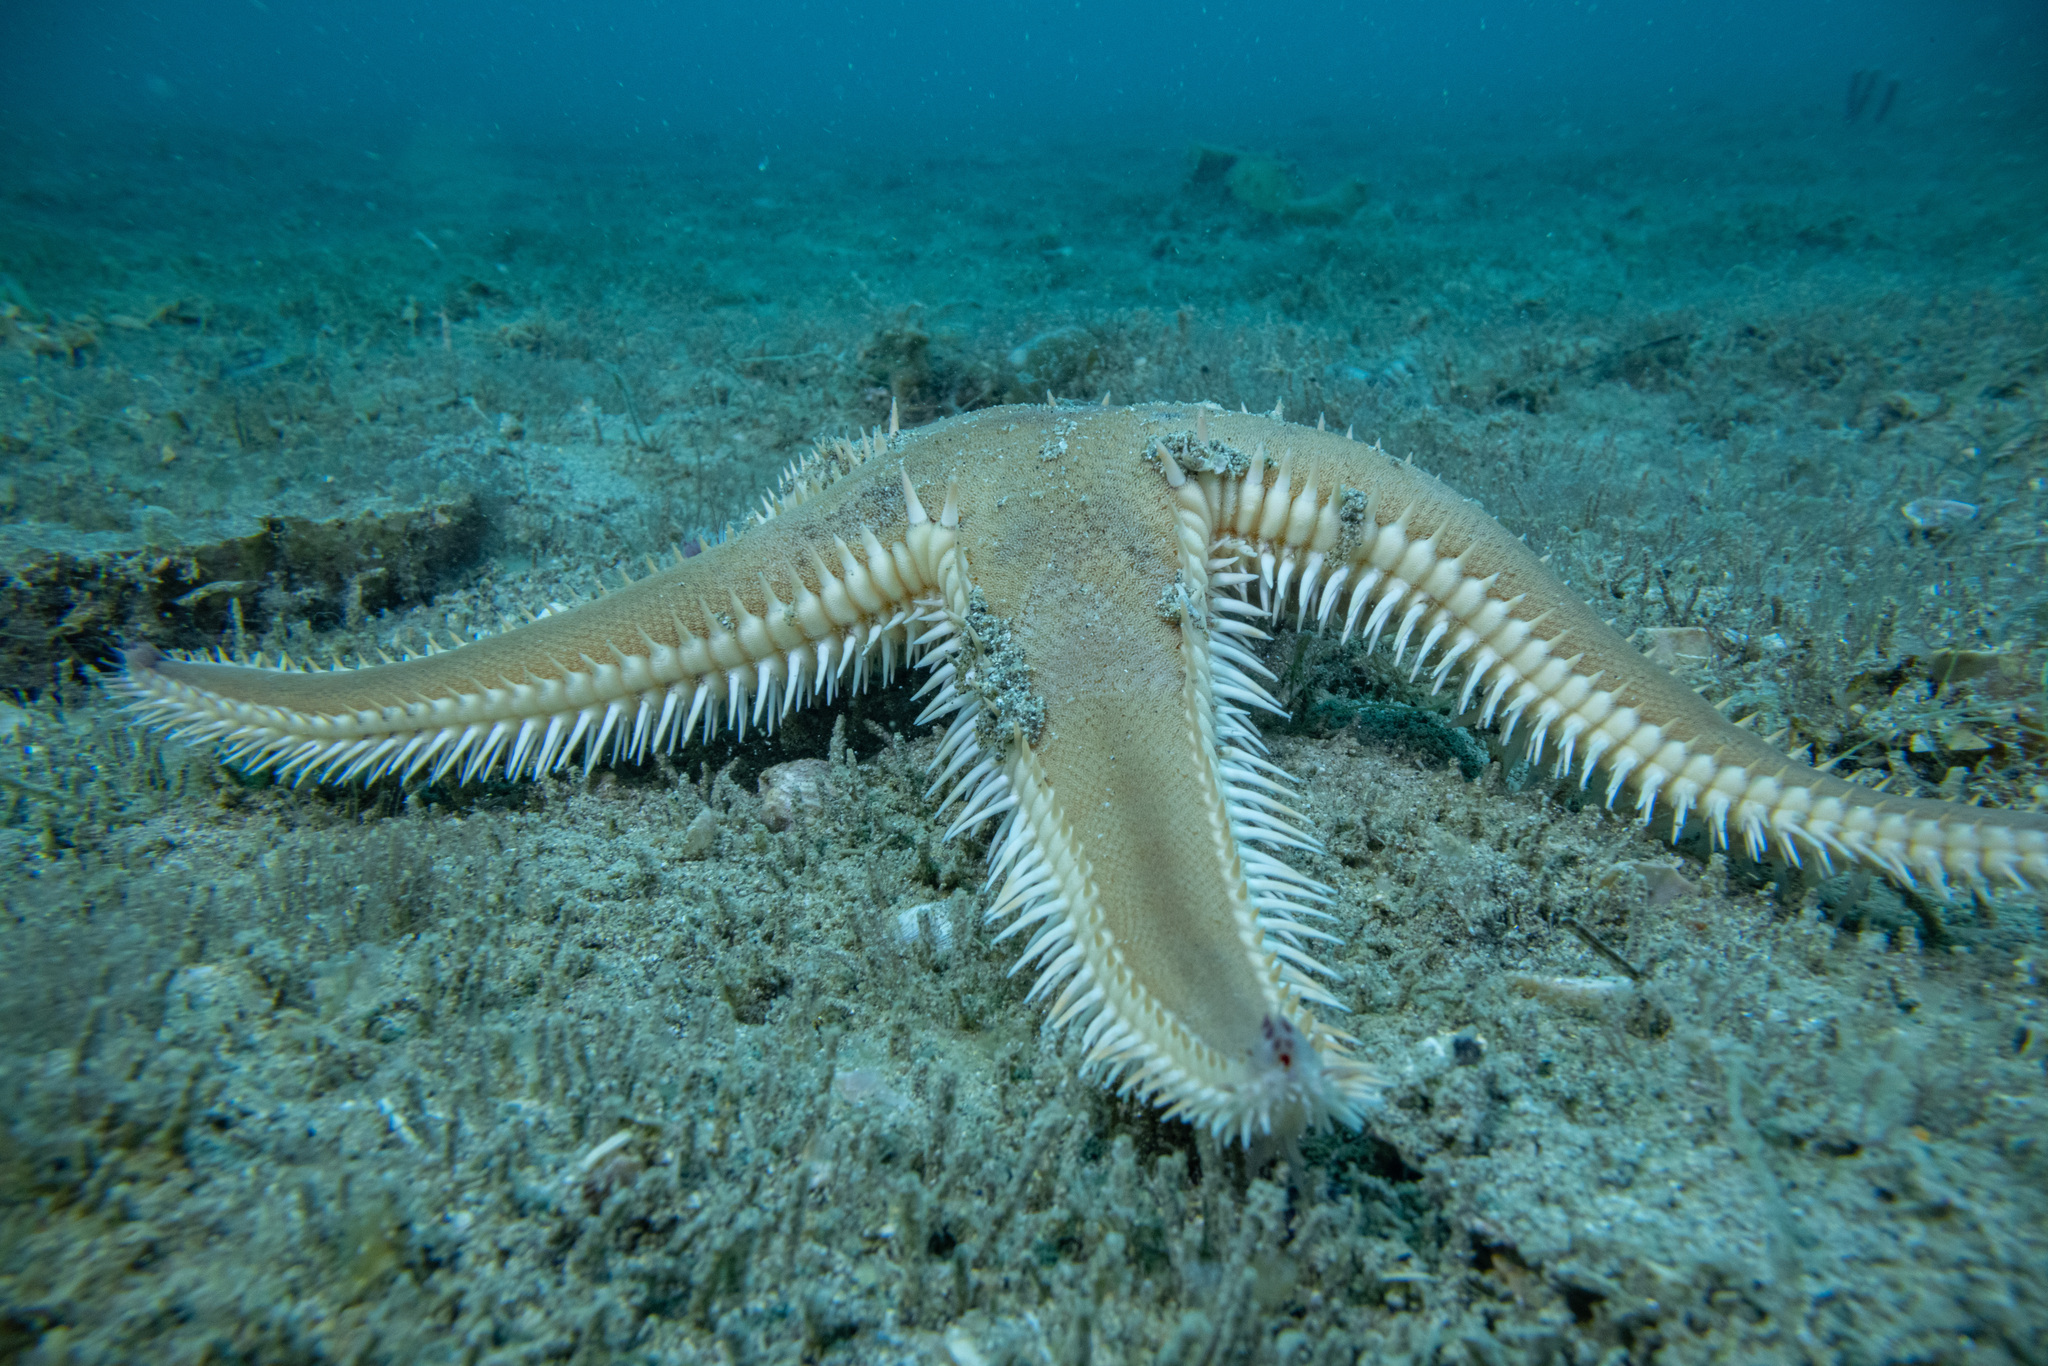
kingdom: Animalia
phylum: Echinodermata
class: Asteroidea
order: Paxillosida
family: Astropectinidae
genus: Astropecten
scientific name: Astropecten polyacanthus
